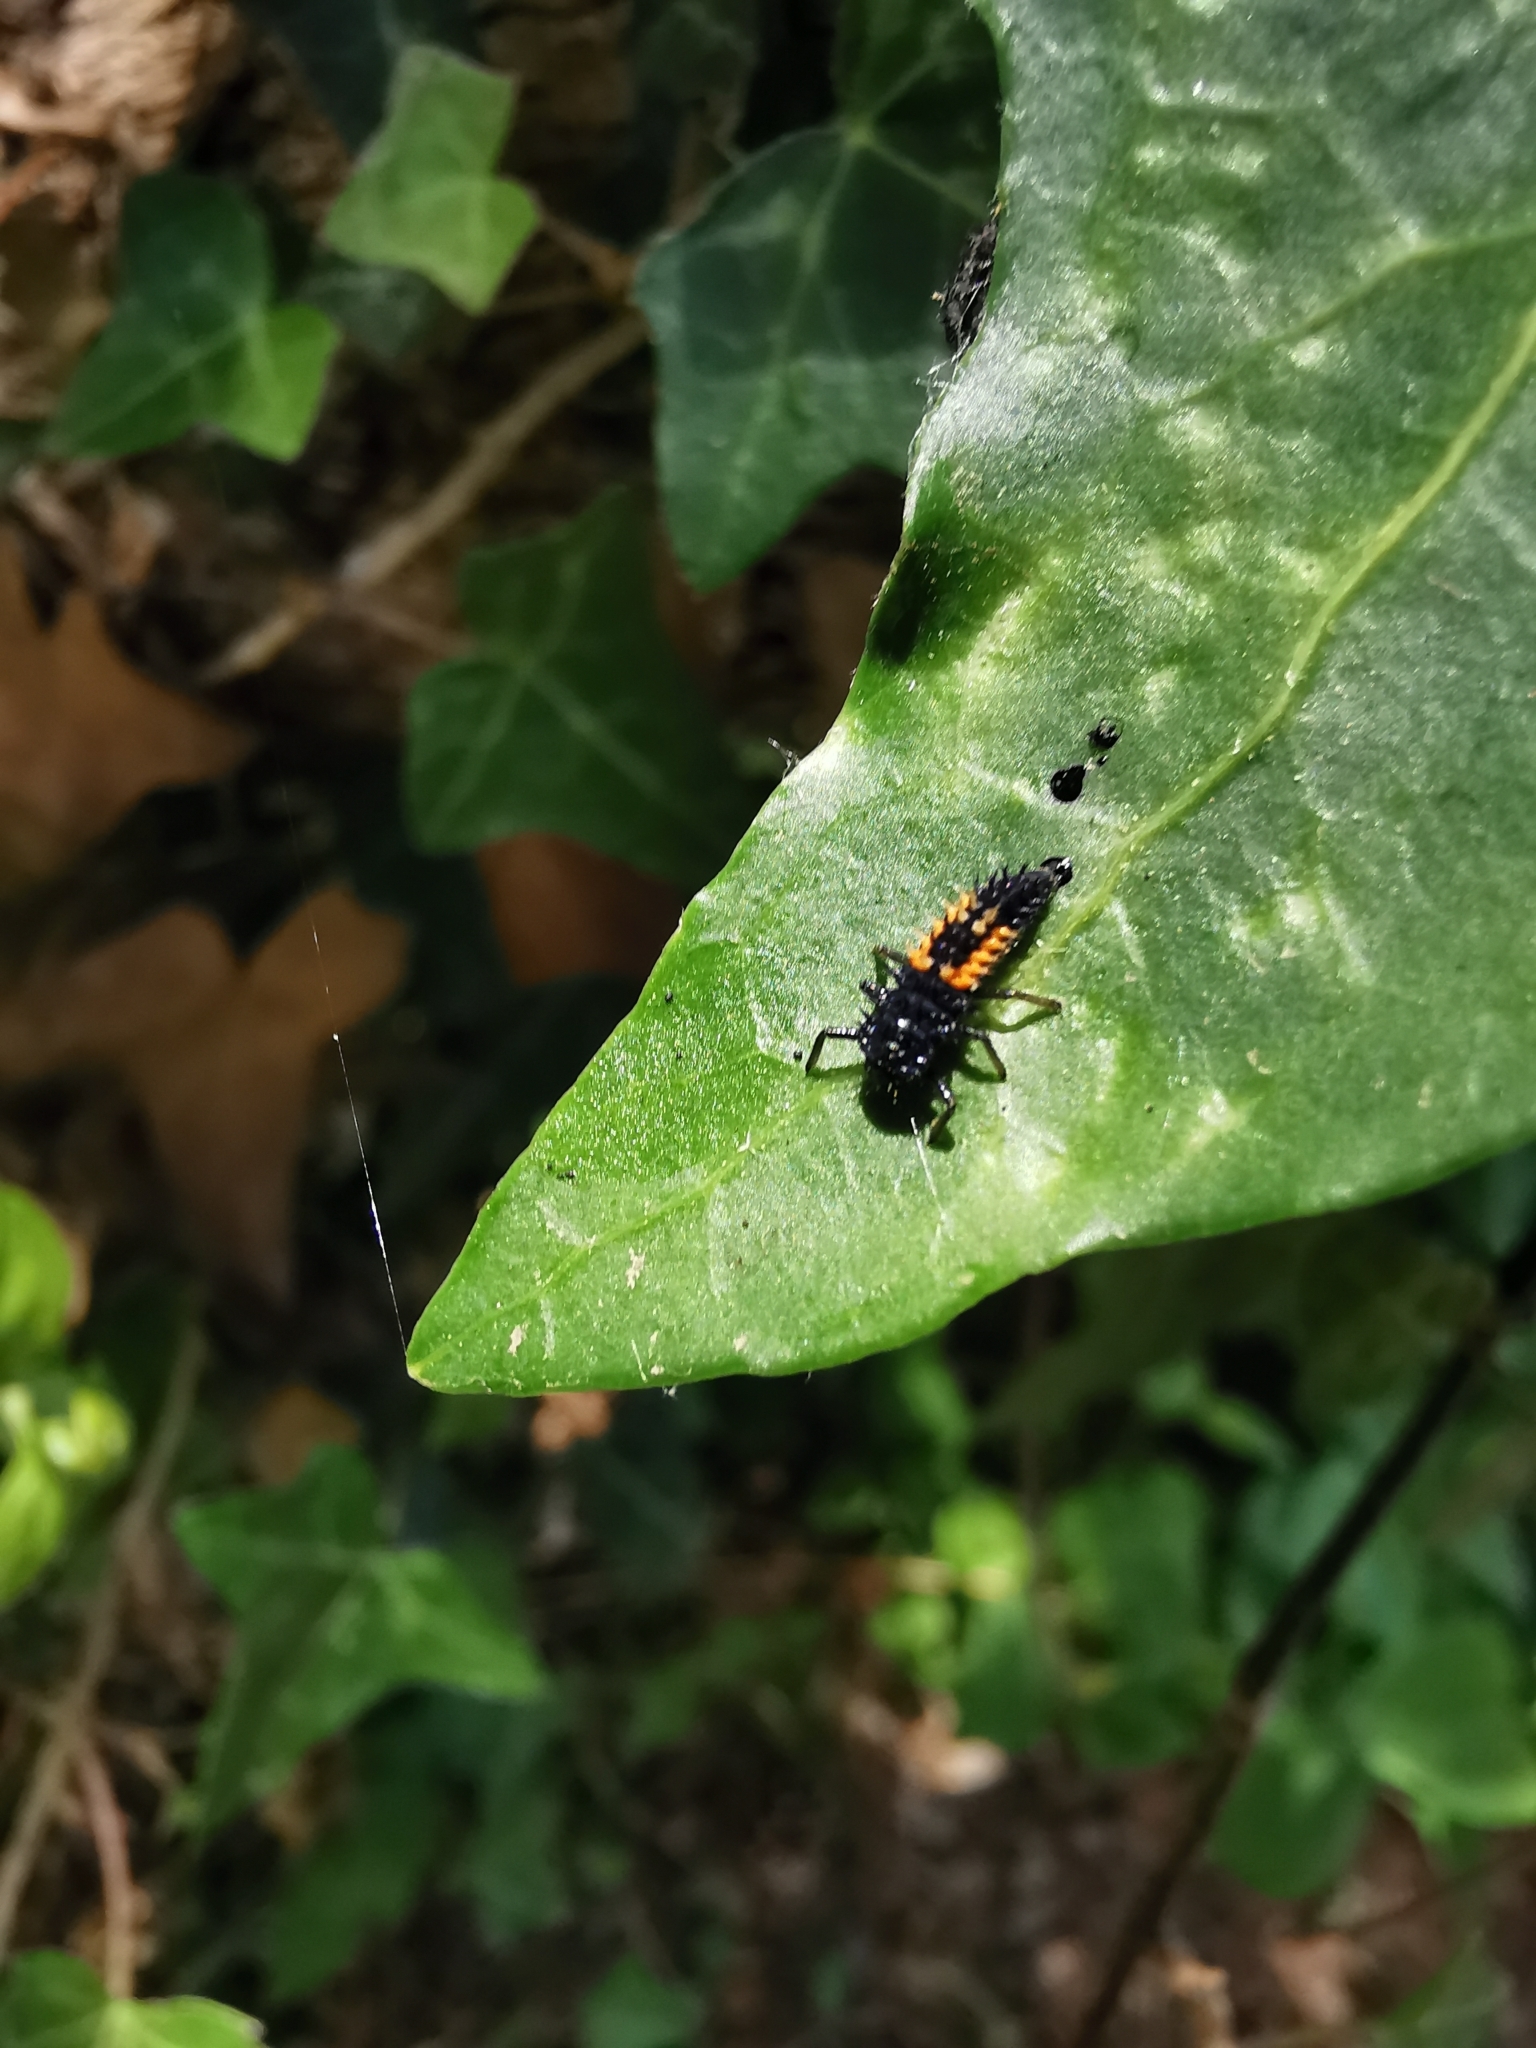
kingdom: Animalia
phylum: Arthropoda
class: Insecta
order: Coleoptera
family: Coccinellidae
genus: Harmonia
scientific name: Harmonia axyridis
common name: Harlequin ladybird
